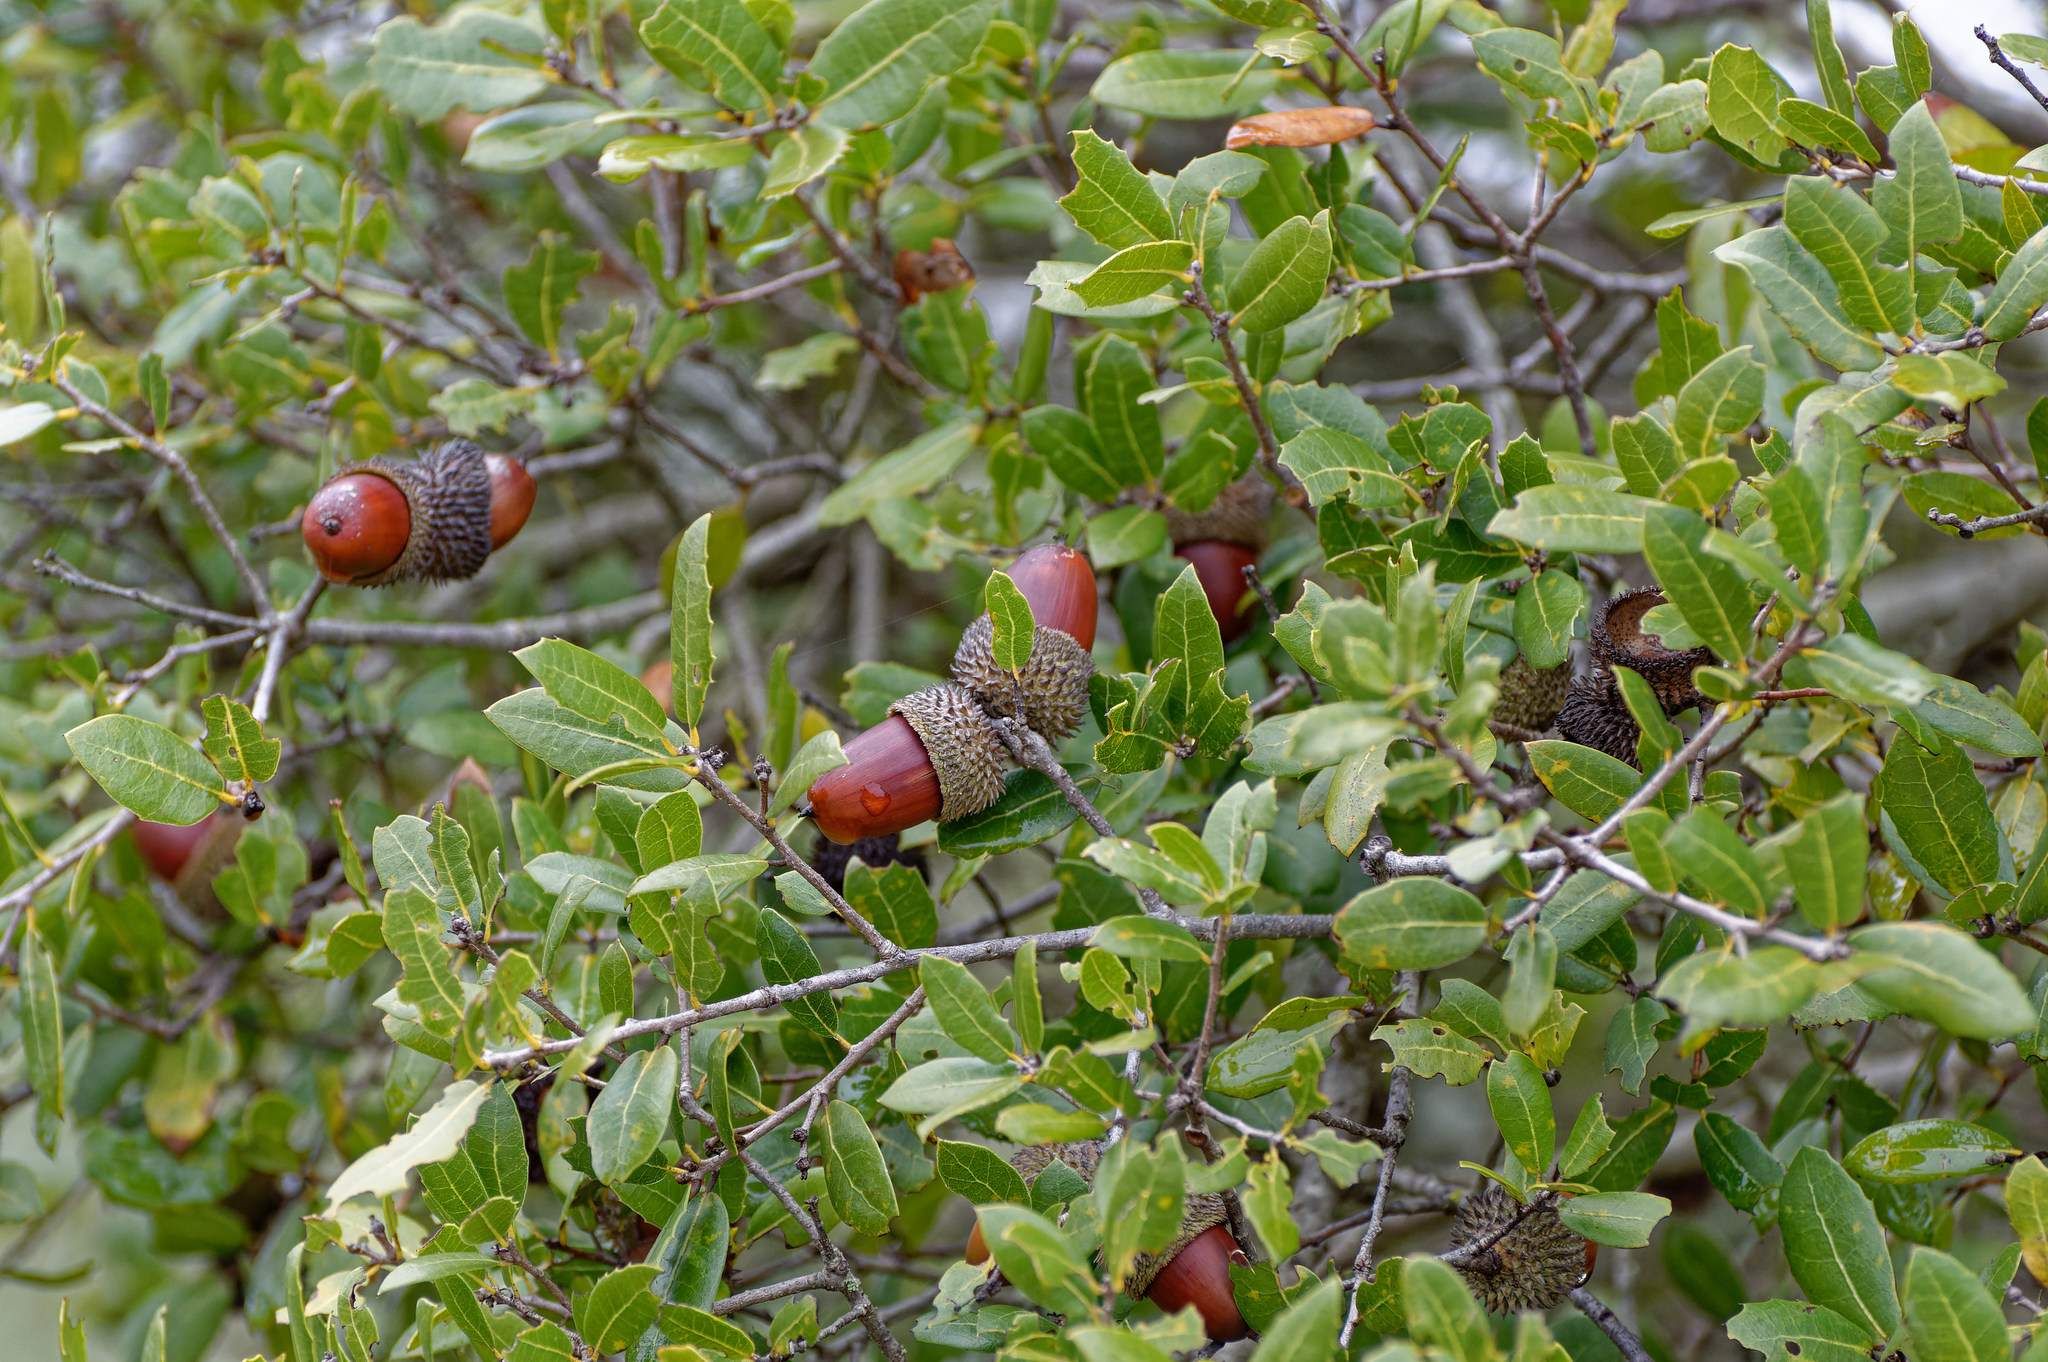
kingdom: Plantae
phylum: Tracheophyta
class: Magnoliopsida
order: Fagales
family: Fagaceae
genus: Quercus
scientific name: Quercus coccifera
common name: Kermes oak
